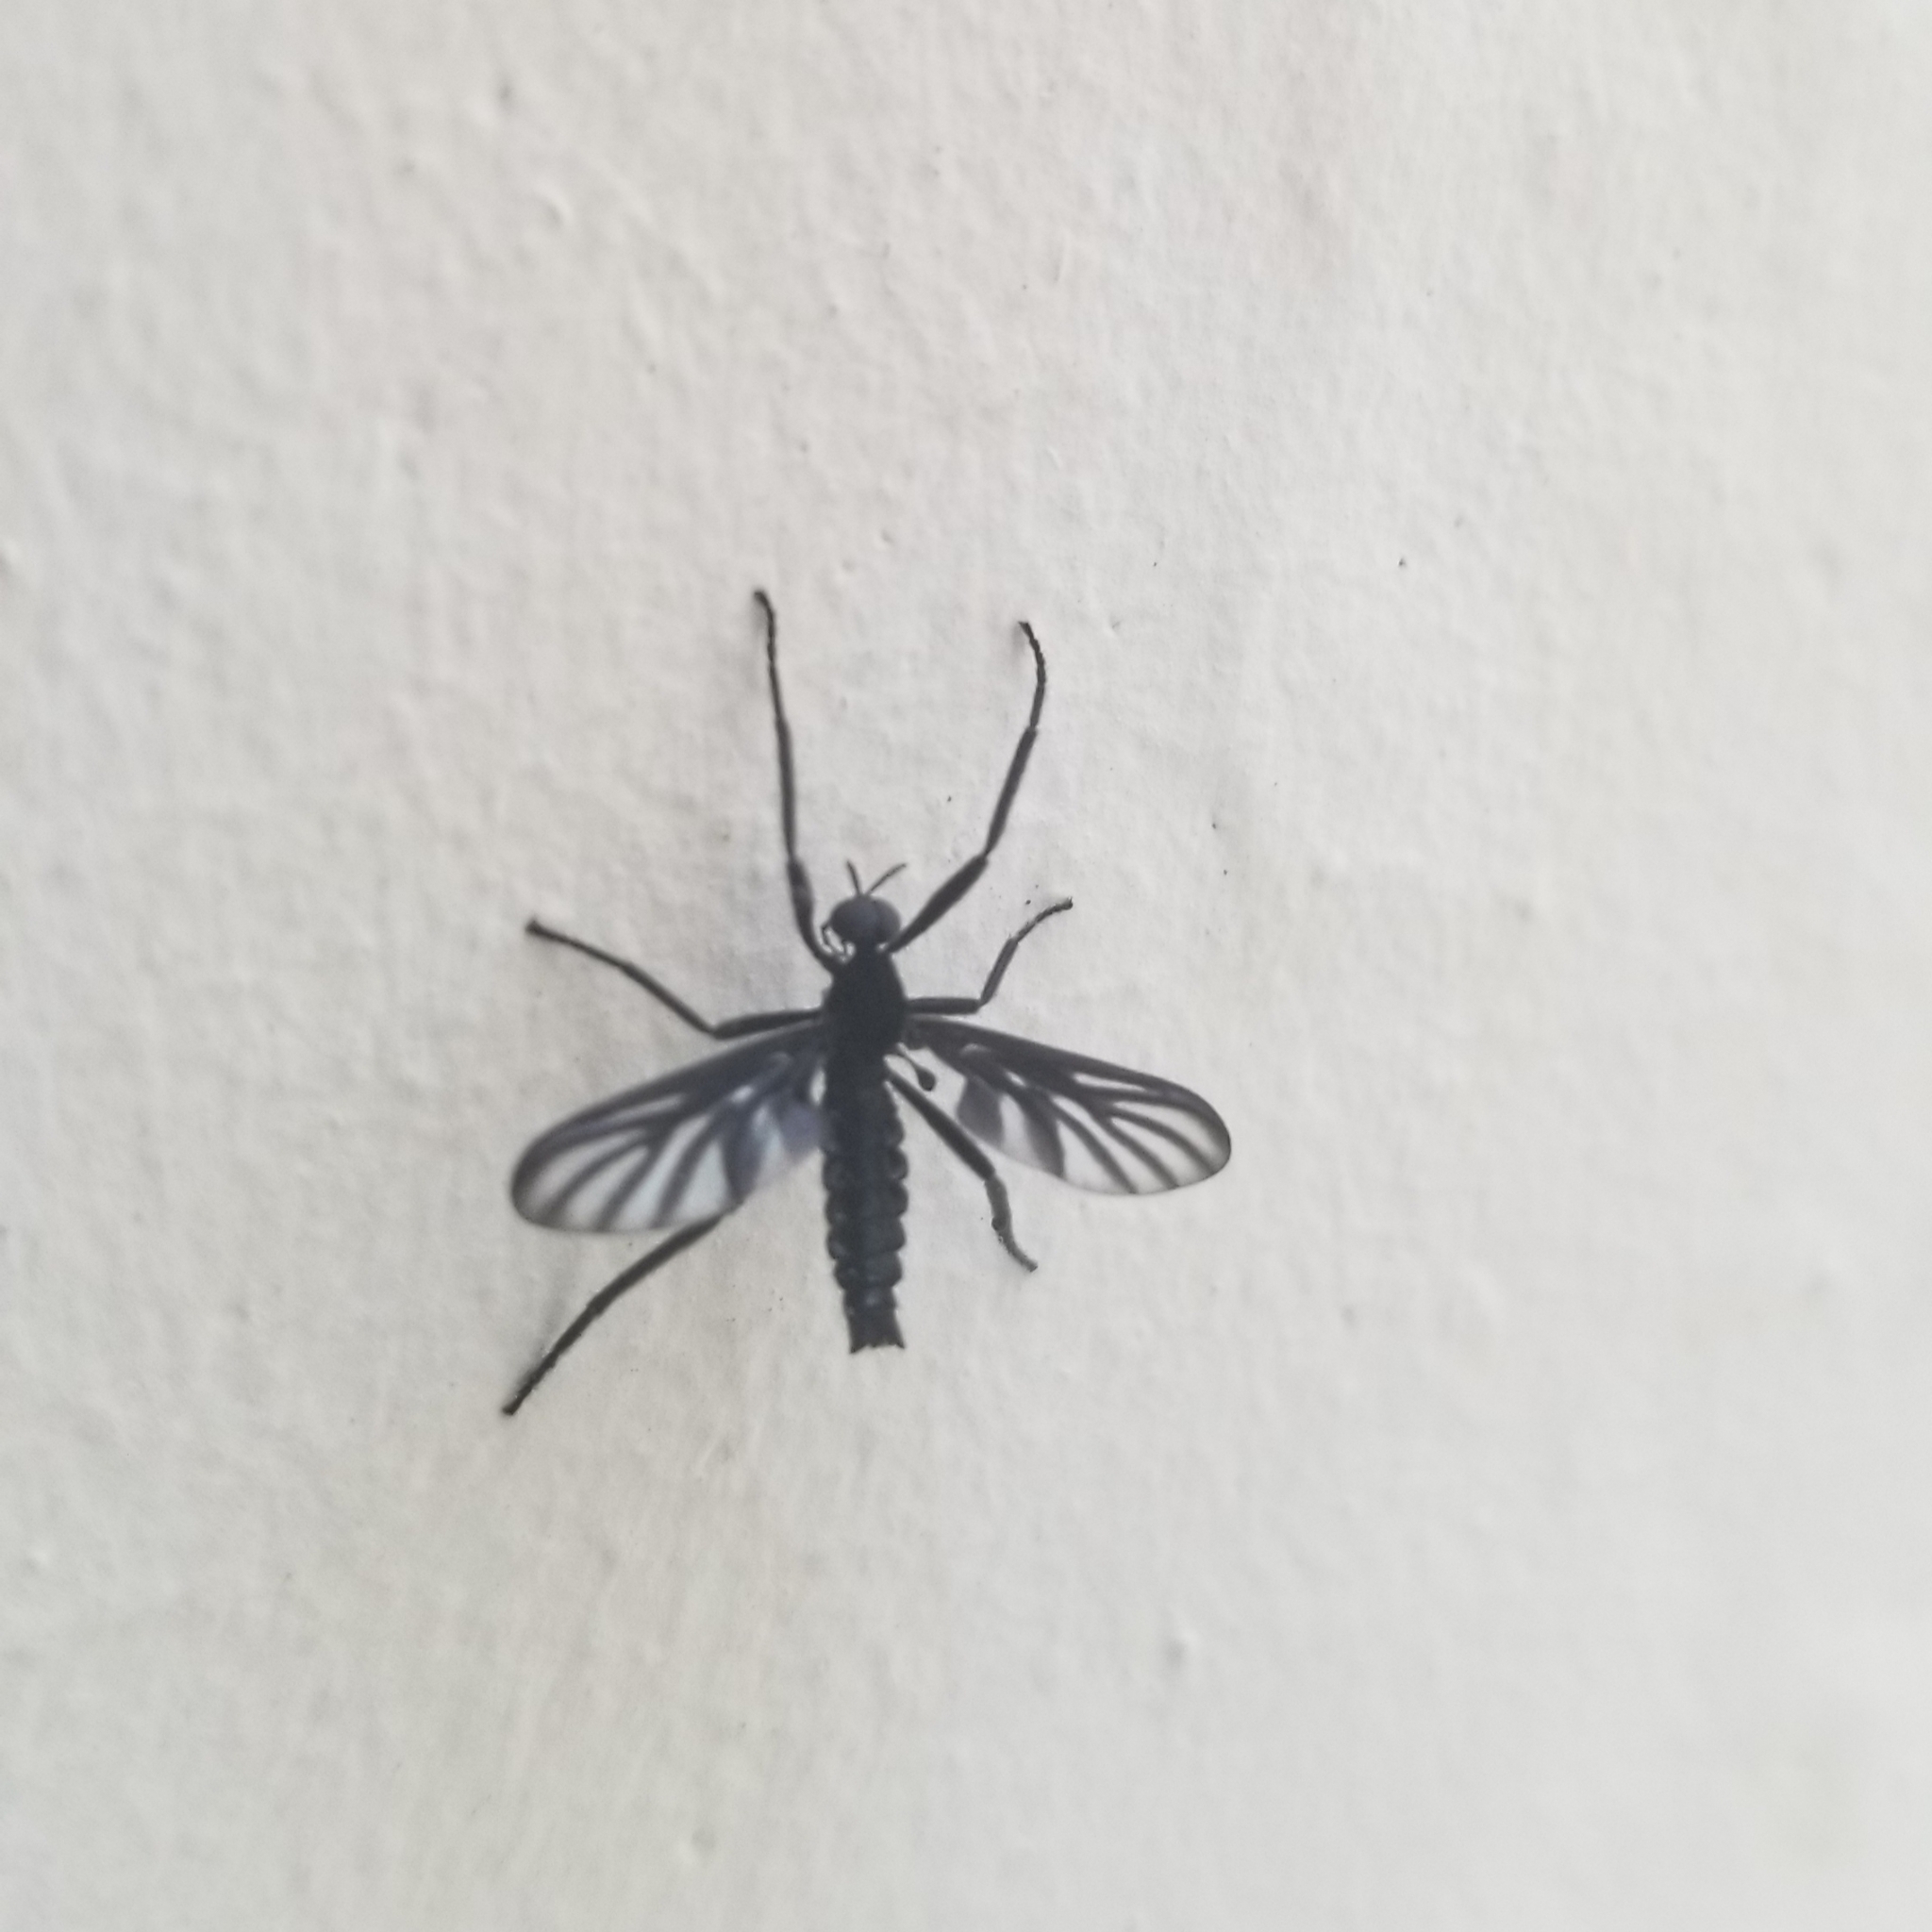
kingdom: Animalia
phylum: Arthropoda
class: Insecta
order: Diptera
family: Bibionidae
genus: Plecia
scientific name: Plecia plagiata
